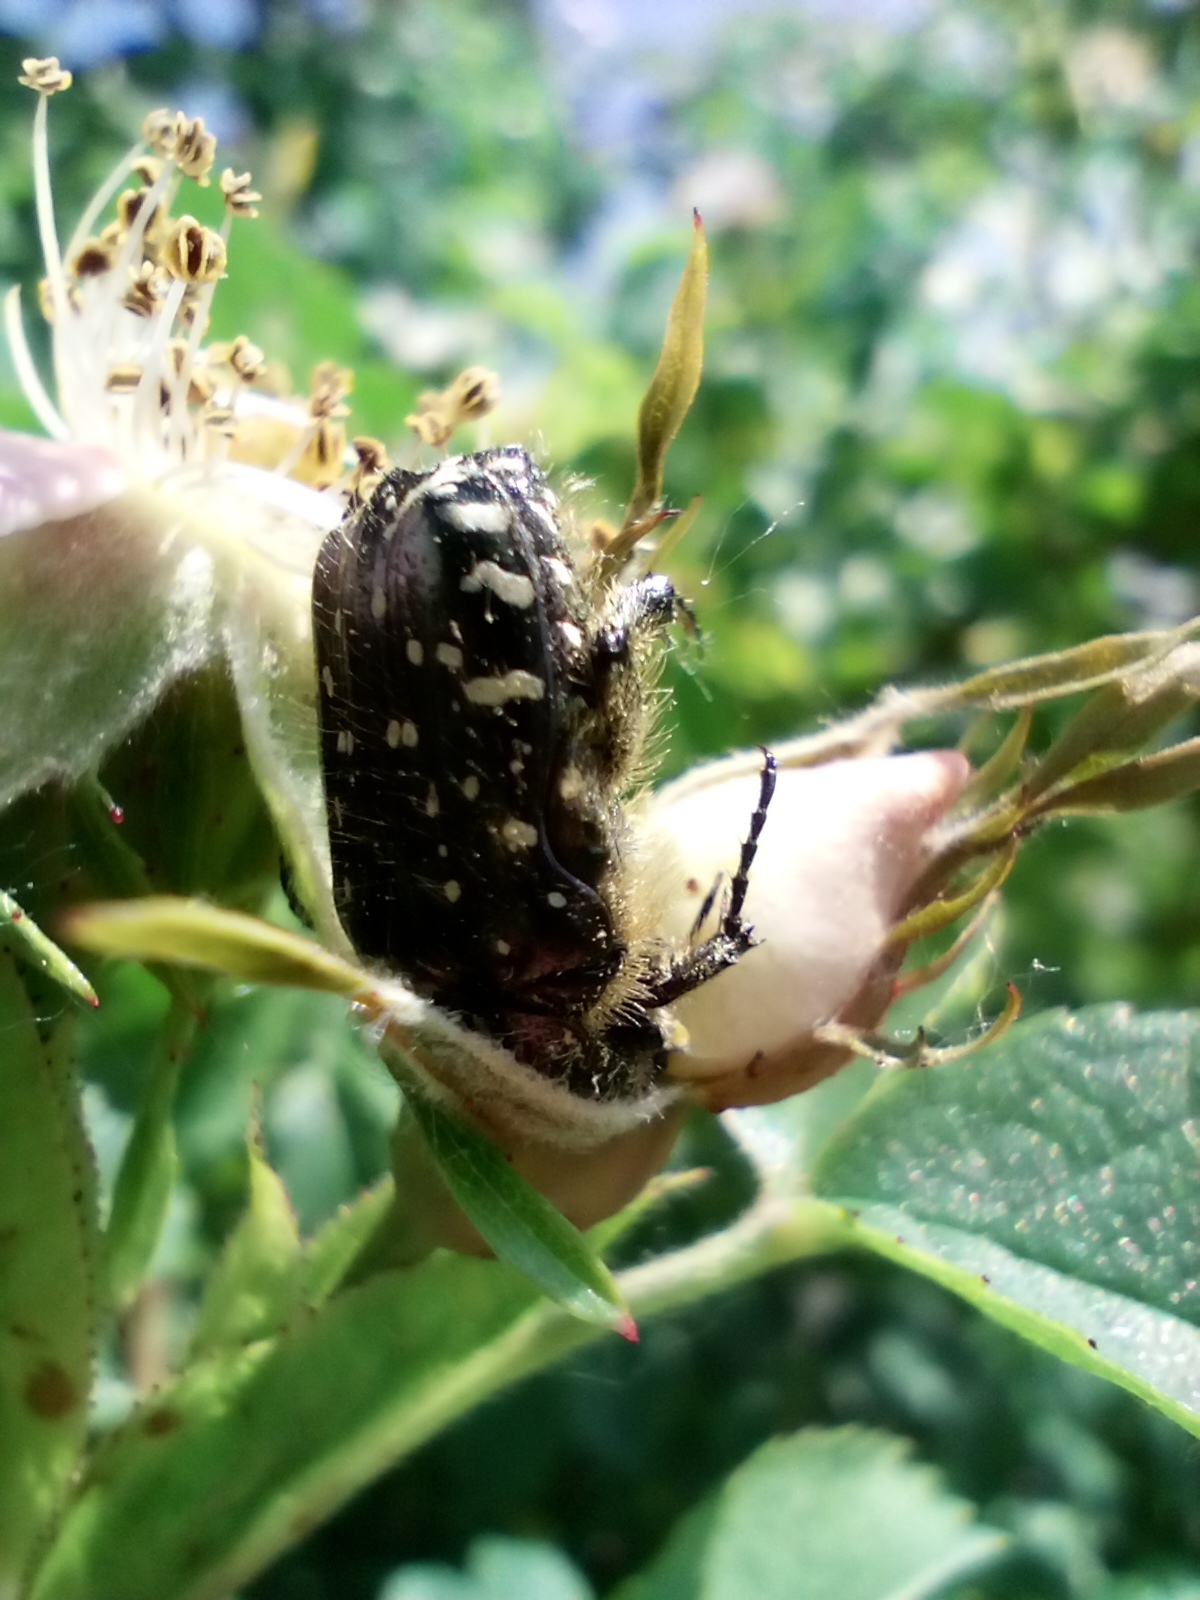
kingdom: Animalia
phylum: Arthropoda
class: Insecta
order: Coleoptera
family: Scarabaeidae
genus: Oxythyrea
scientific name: Oxythyrea funesta
